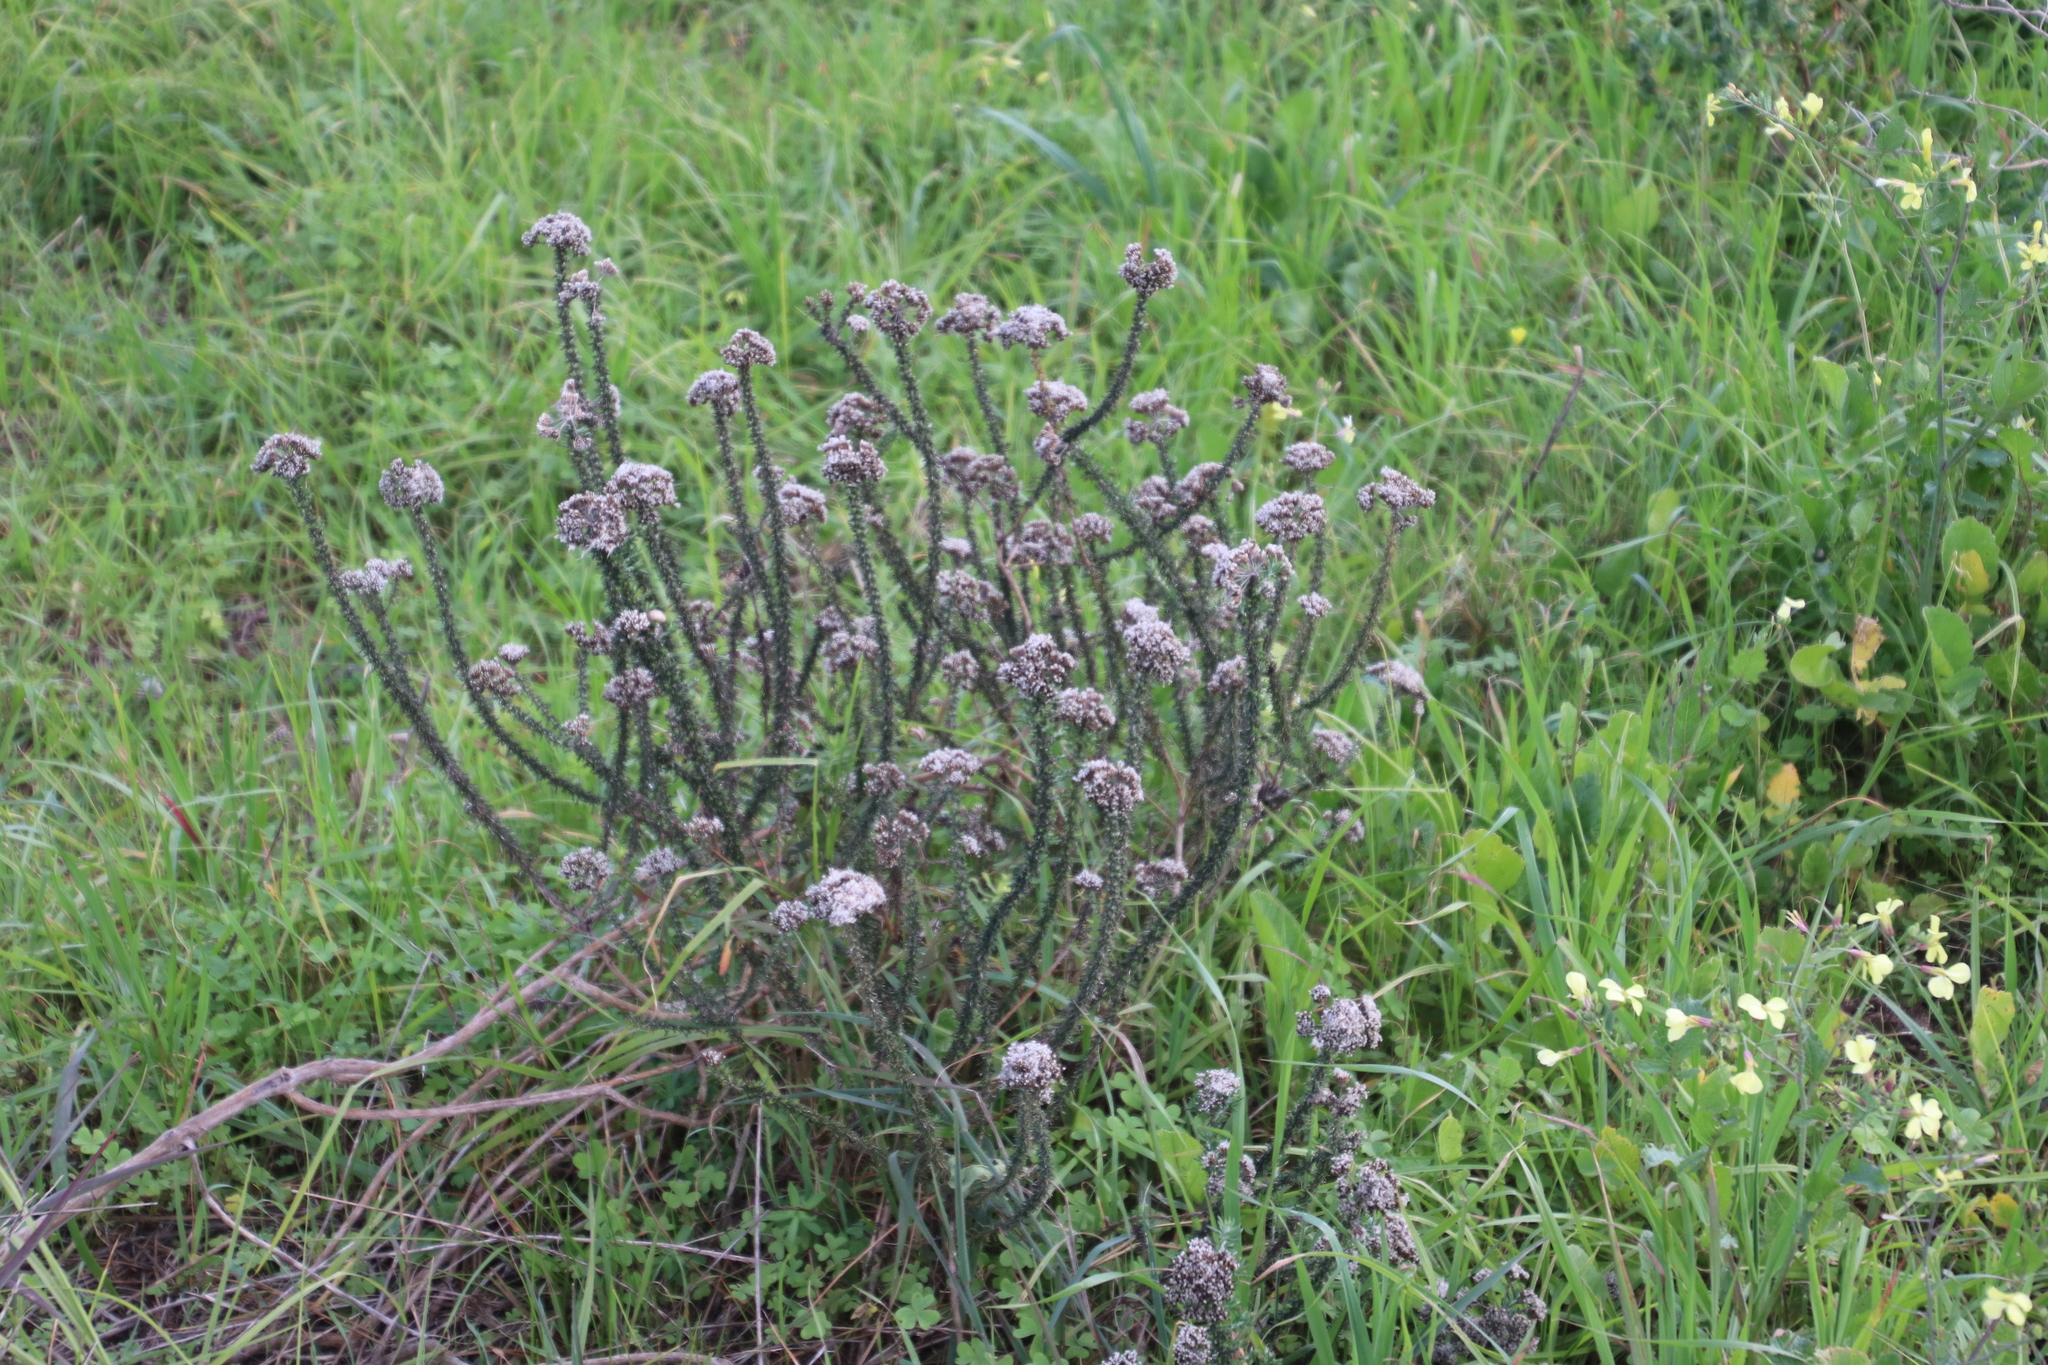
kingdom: Plantae
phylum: Tracheophyta
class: Magnoliopsida
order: Asterales
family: Asteraceae
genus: Metalasia
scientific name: Metalasia densa
